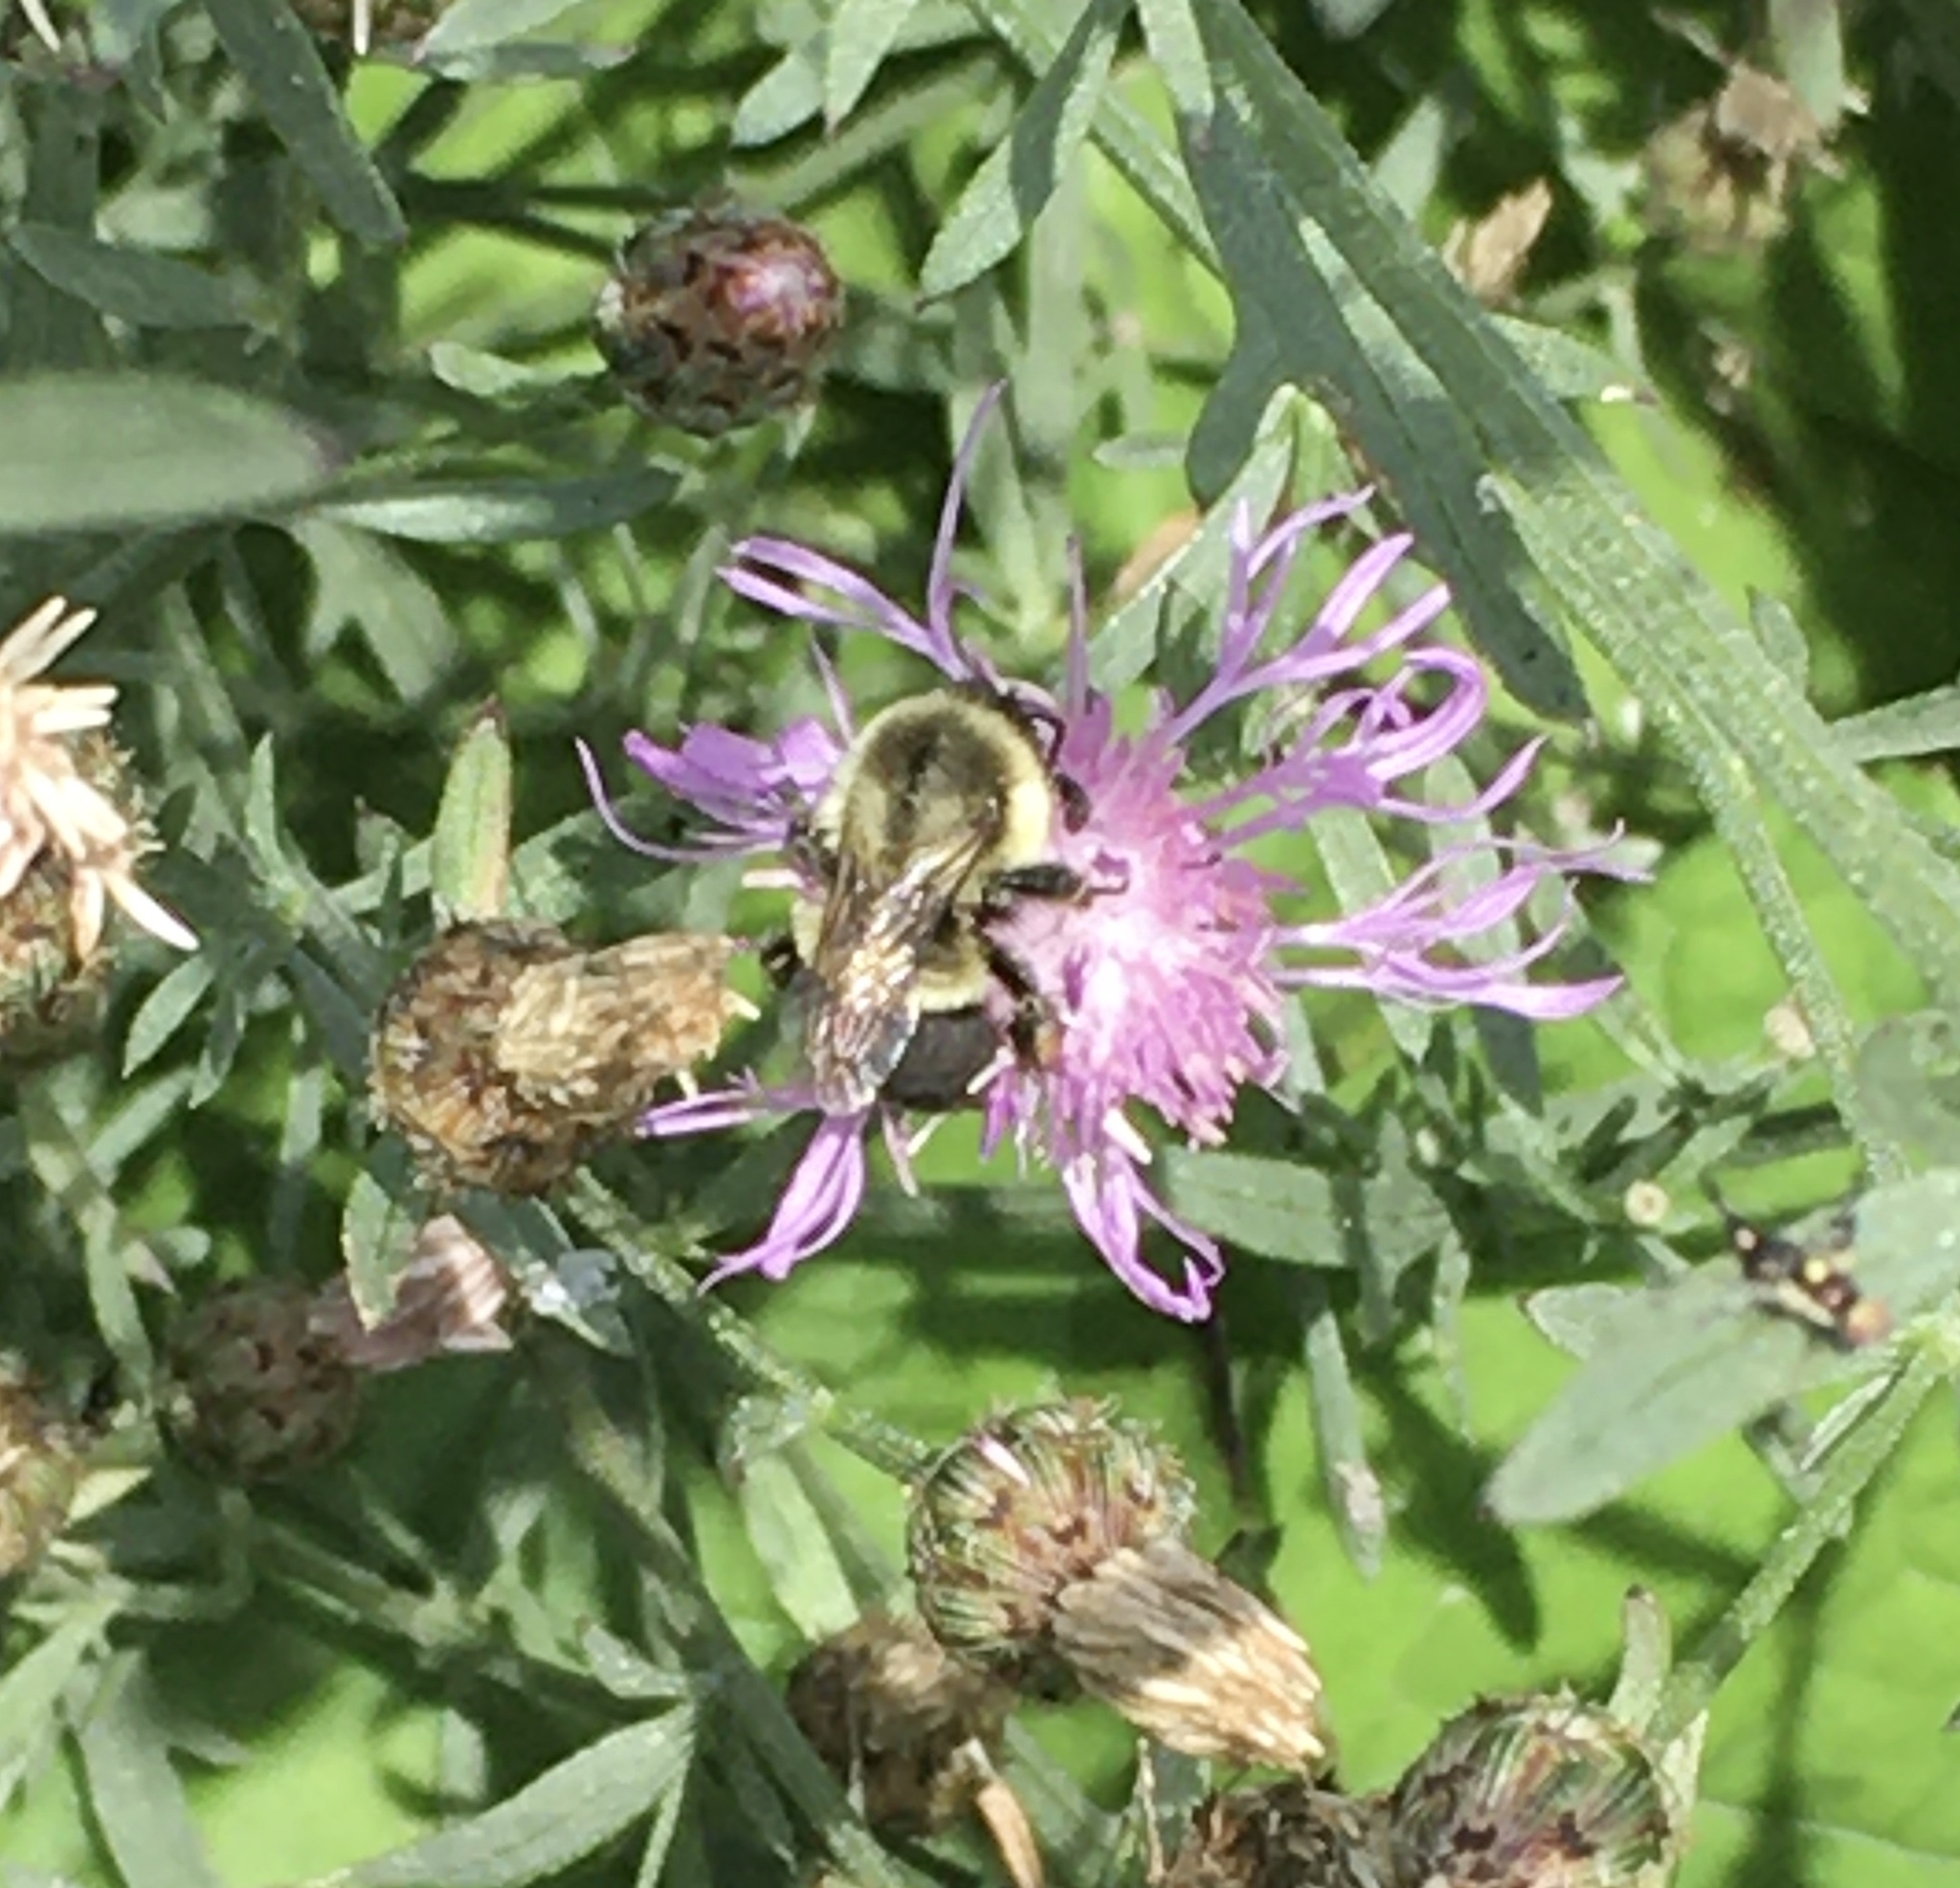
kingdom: Animalia
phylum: Arthropoda
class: Insecta
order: Hymenoptera
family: Apidae
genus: Bombus
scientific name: Bombus impatiens
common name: Common eastern bumble bee
